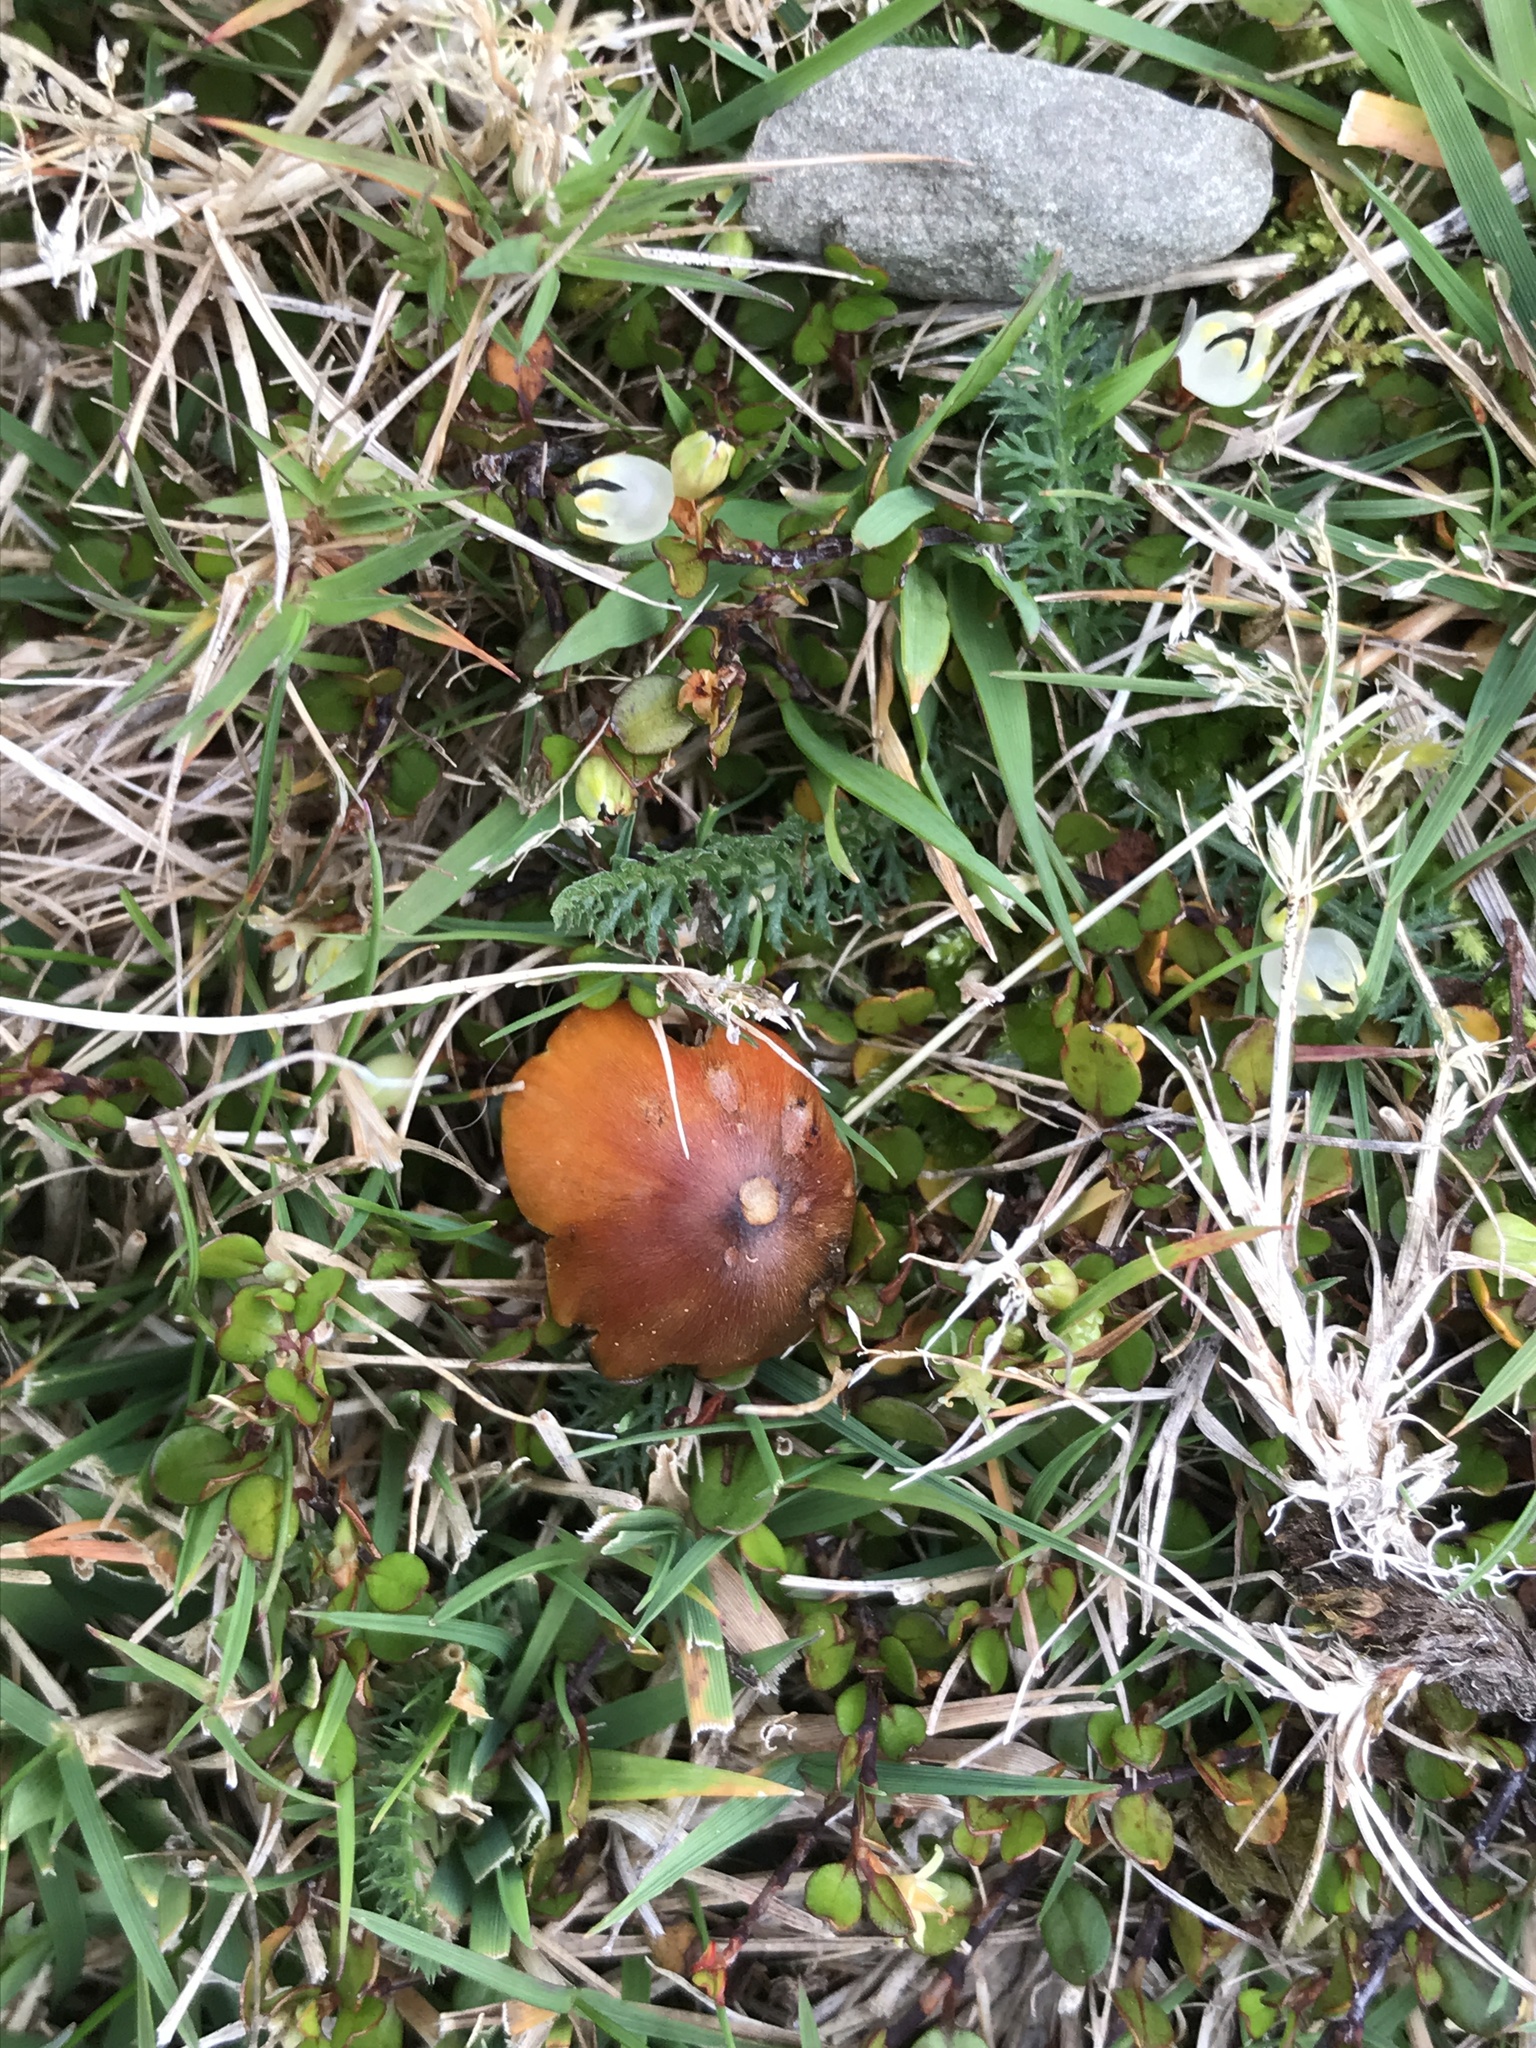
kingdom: Fungi
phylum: Basidiomycota
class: Agaricomycetes
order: Agaricales
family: Hygrophoraceae
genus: Hygrocybe
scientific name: Hygrocybe conica
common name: Blackening wax-cap
